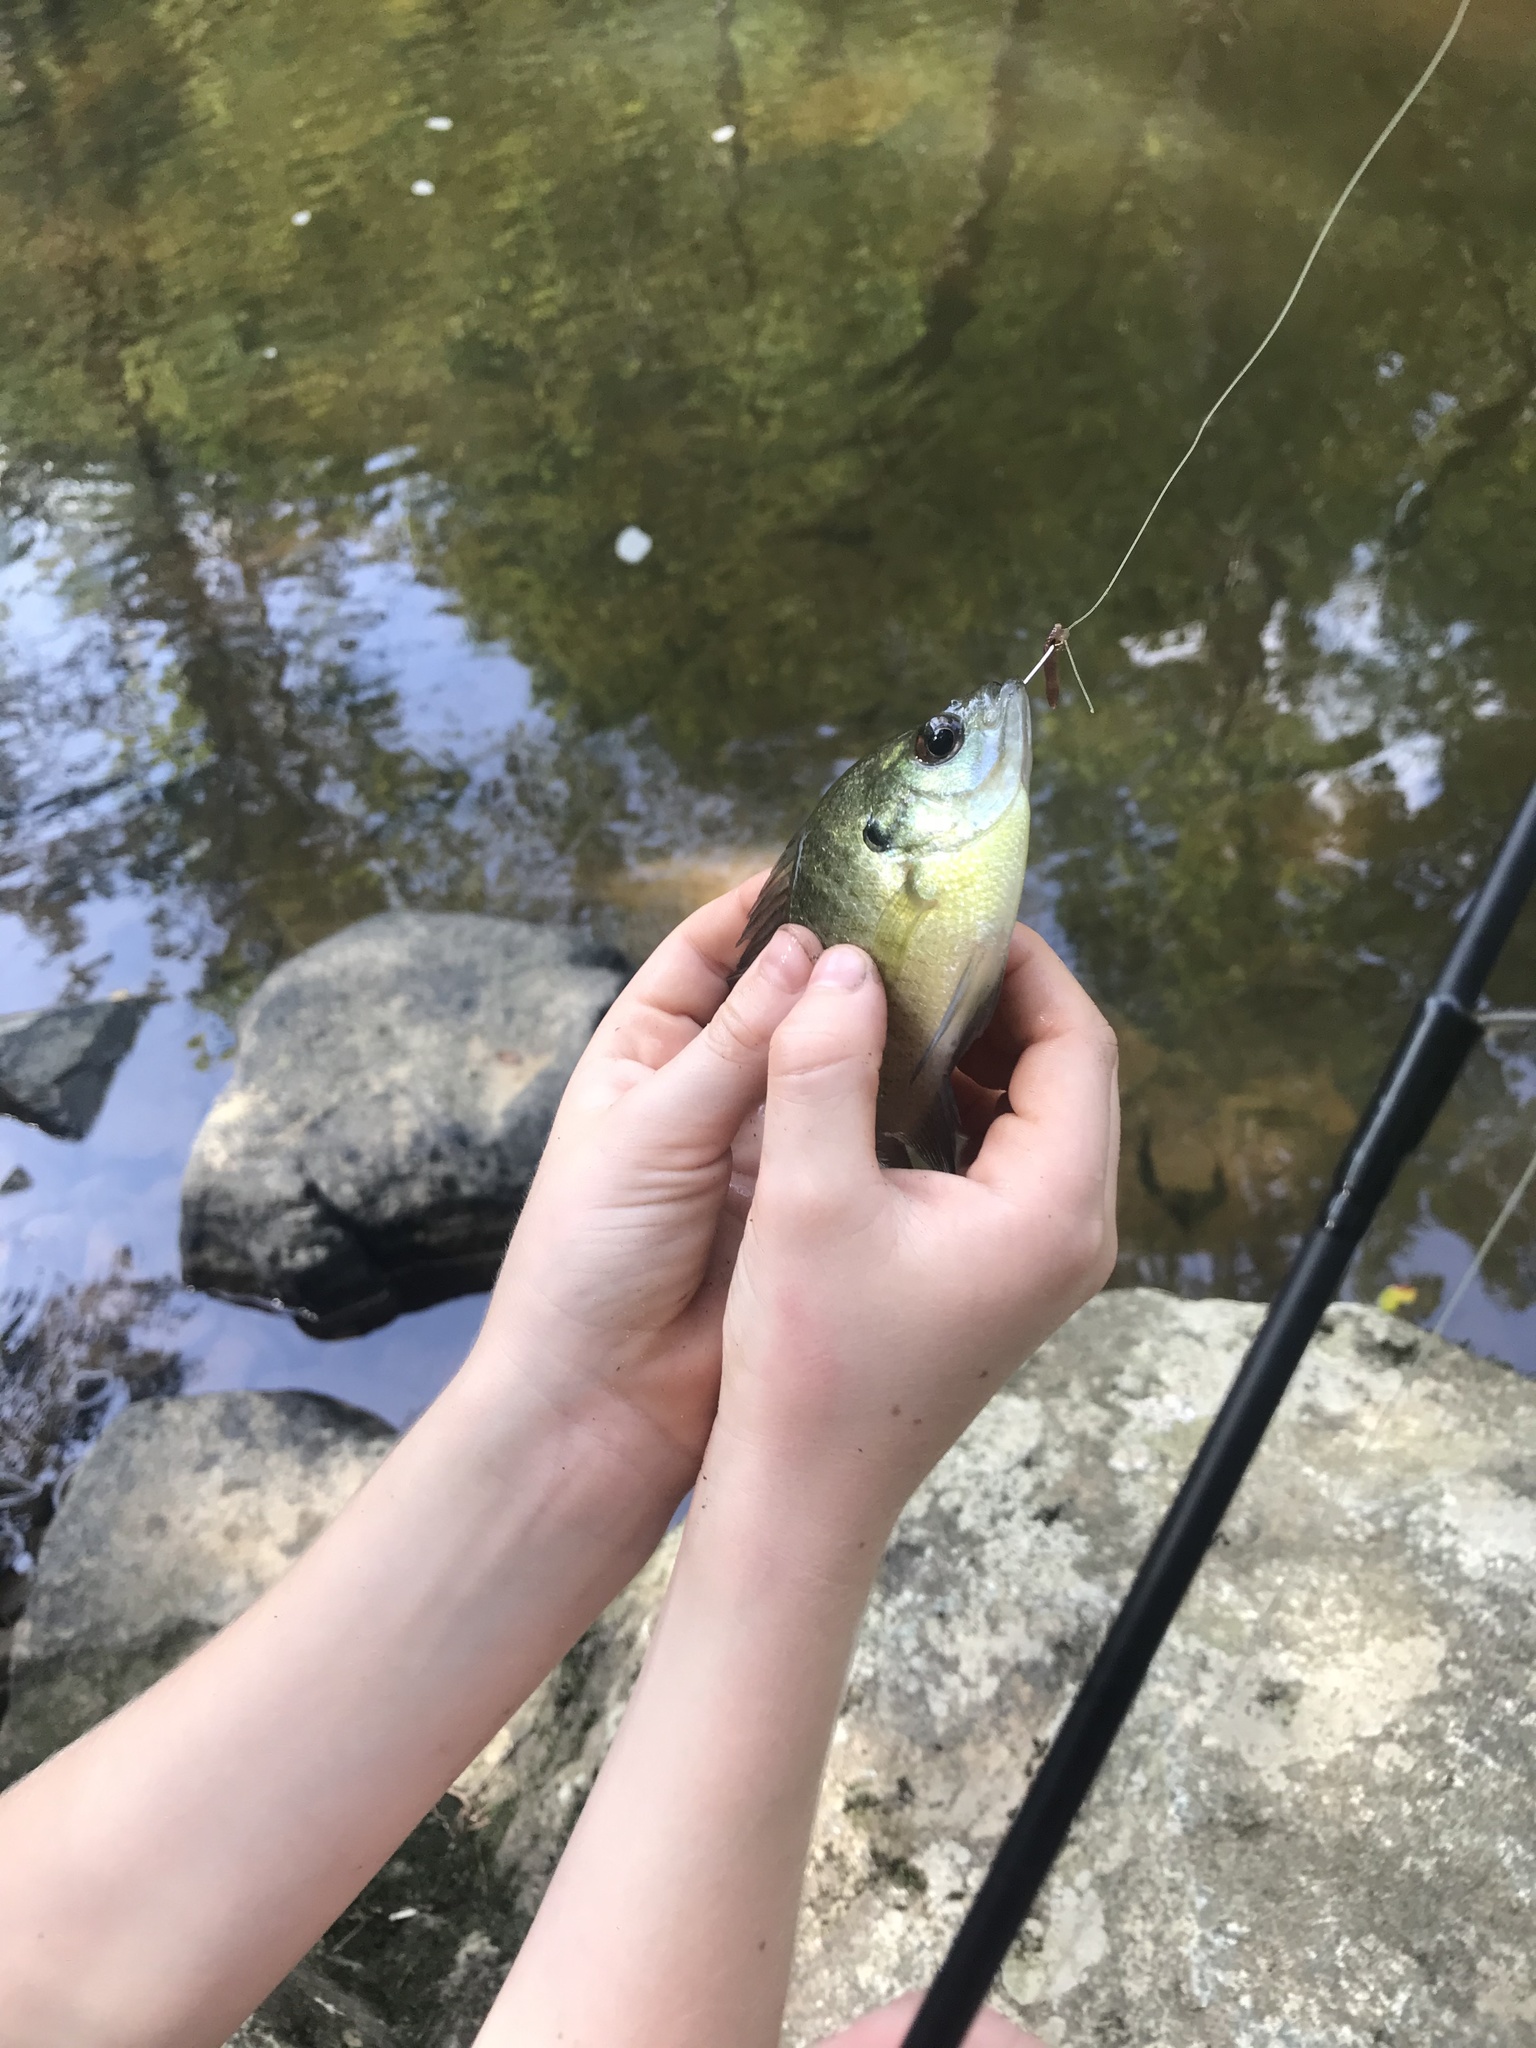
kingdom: Animalia
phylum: Chordata
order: Perciformes
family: Centrarchidae
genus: Lepomis
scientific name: Lepomis macrochirus
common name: Bluegill
